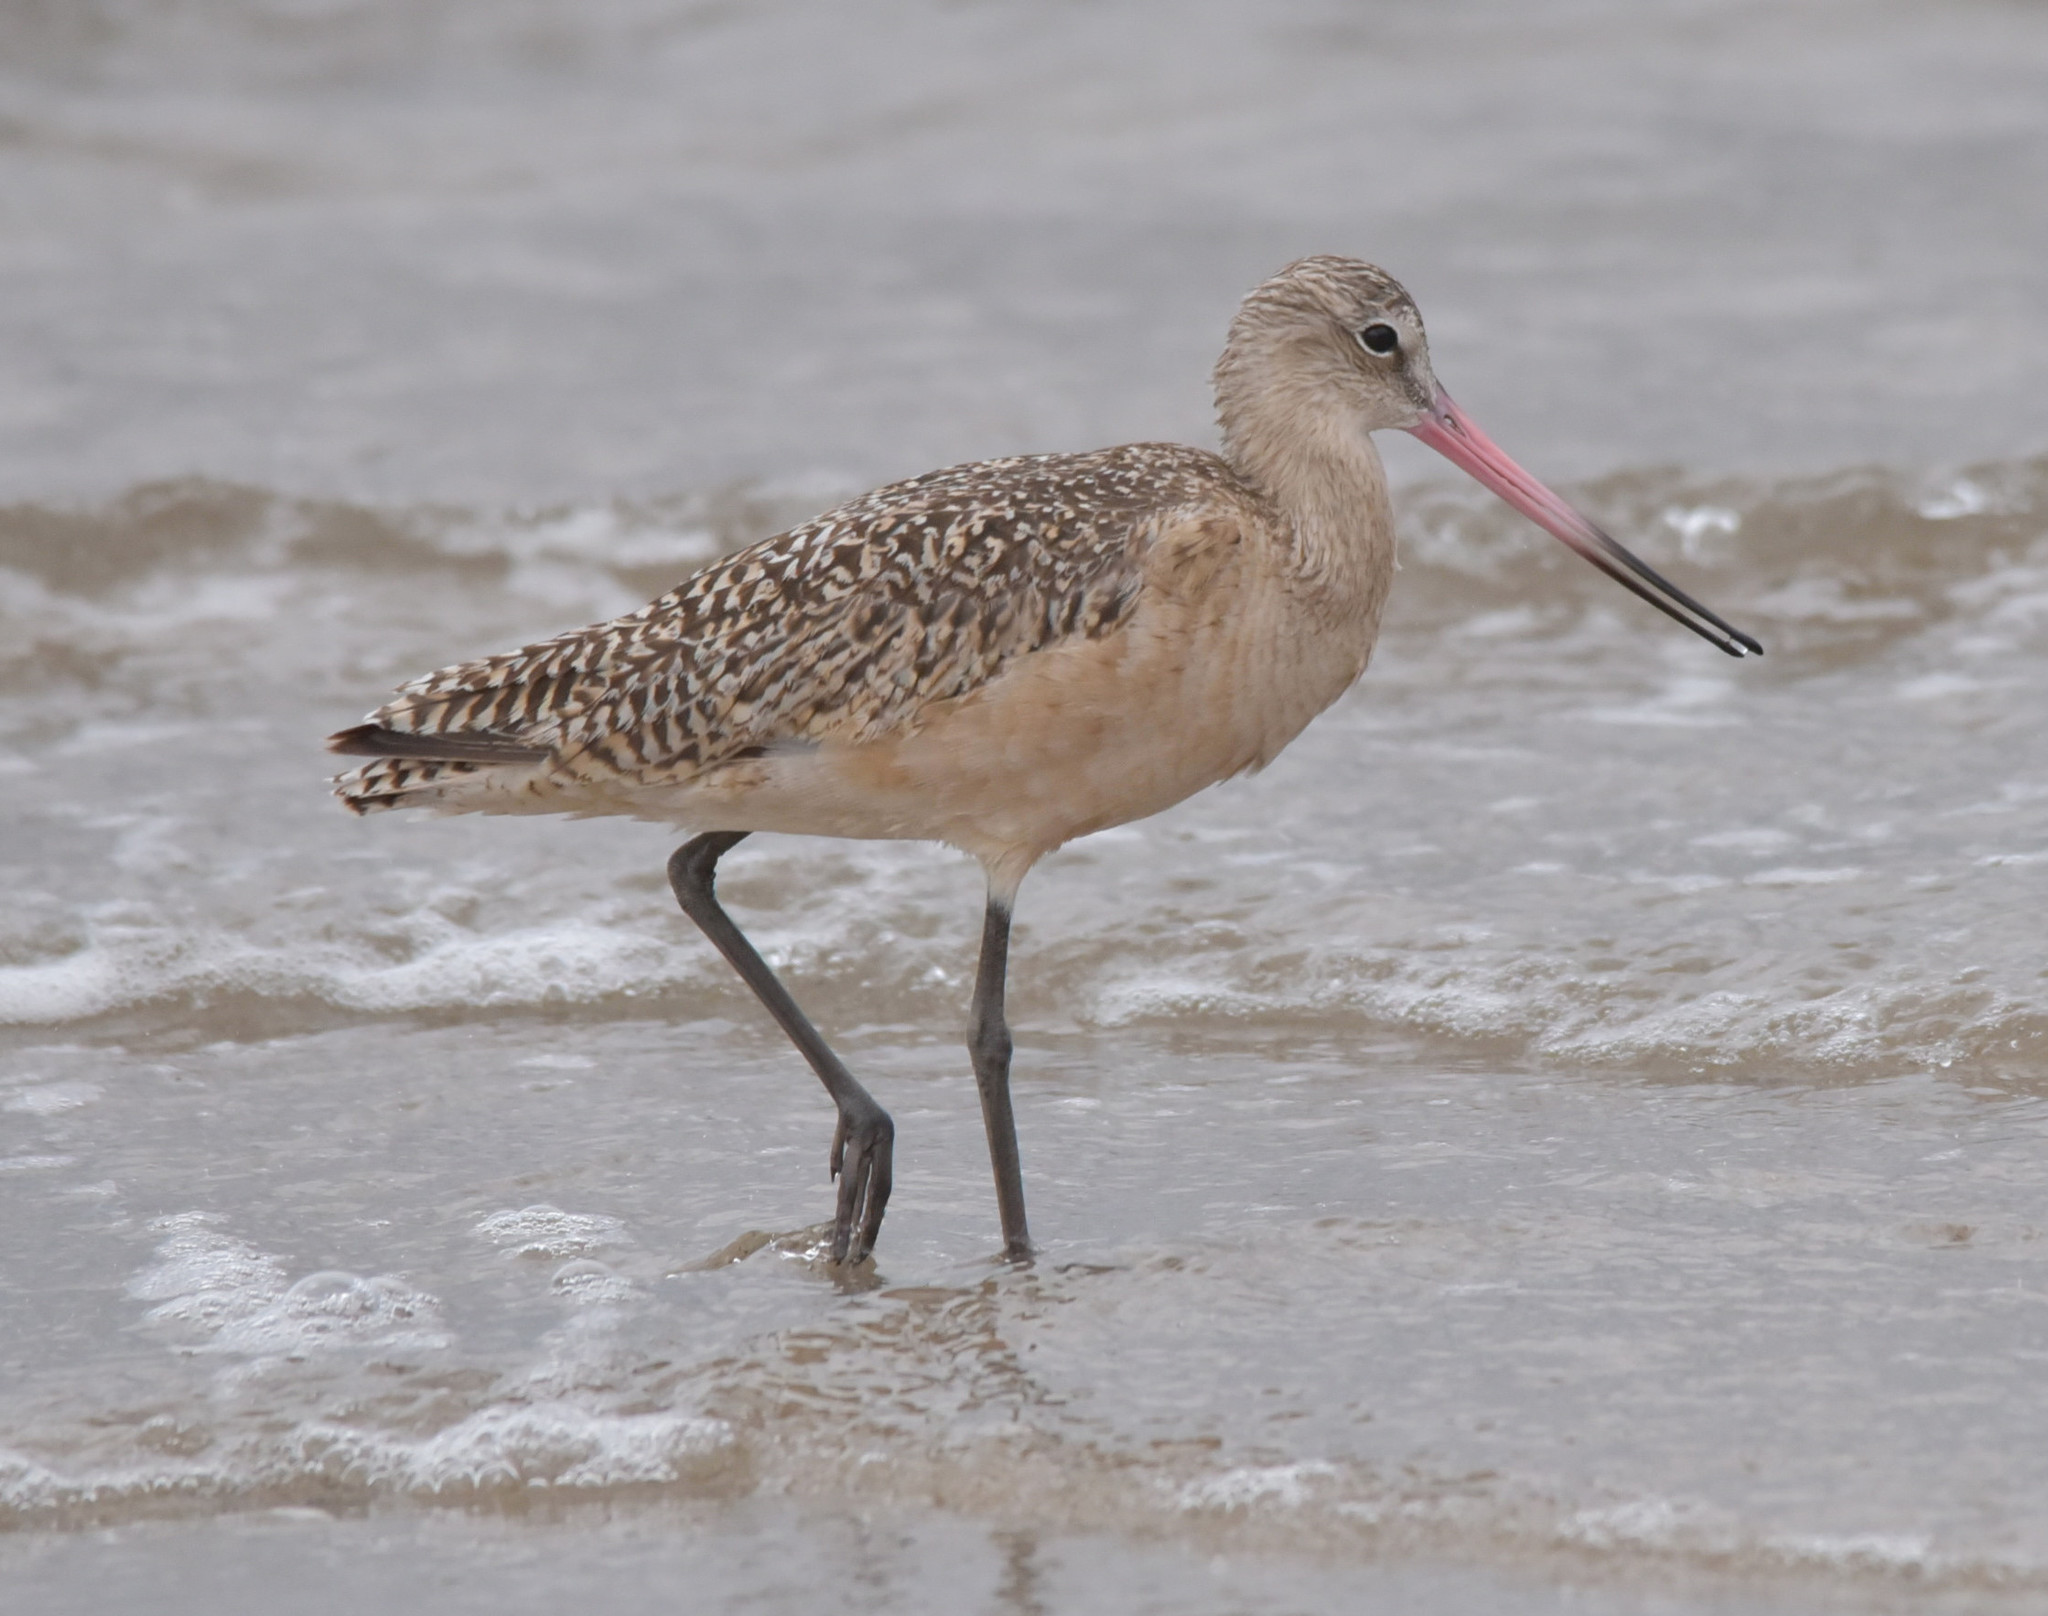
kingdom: Animalia
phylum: Chordata
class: Aves
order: Charadriiformes
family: Scolopacidae
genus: Limosa
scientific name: Limosa fedoa
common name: Marbled godwit
